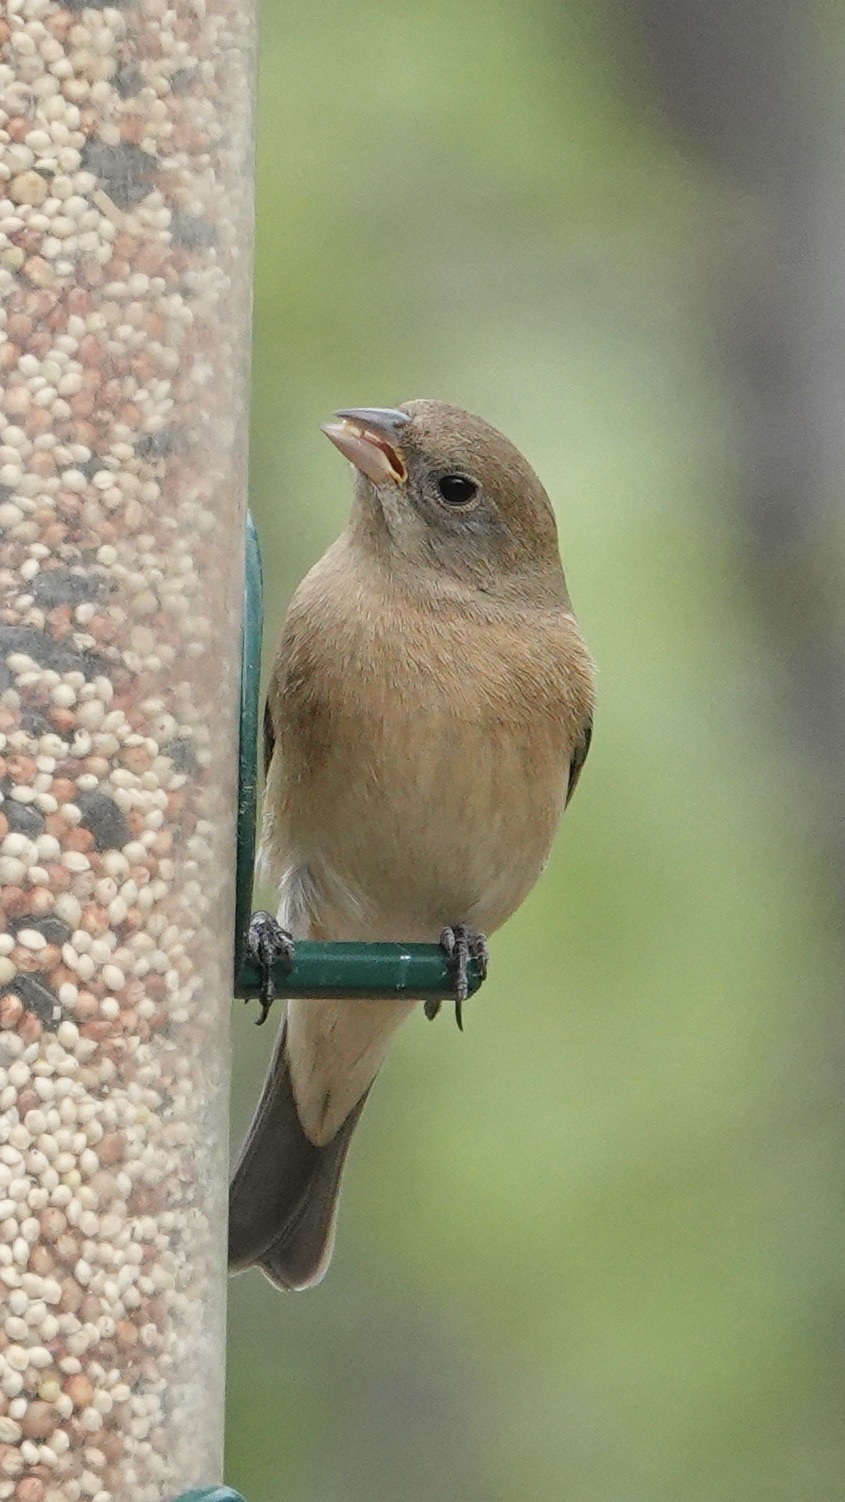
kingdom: Animalia
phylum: Chordata
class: Aves
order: Passeriformes
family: Cardinalidae
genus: Passerina
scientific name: Passerina amoena
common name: Lazuli bunting
